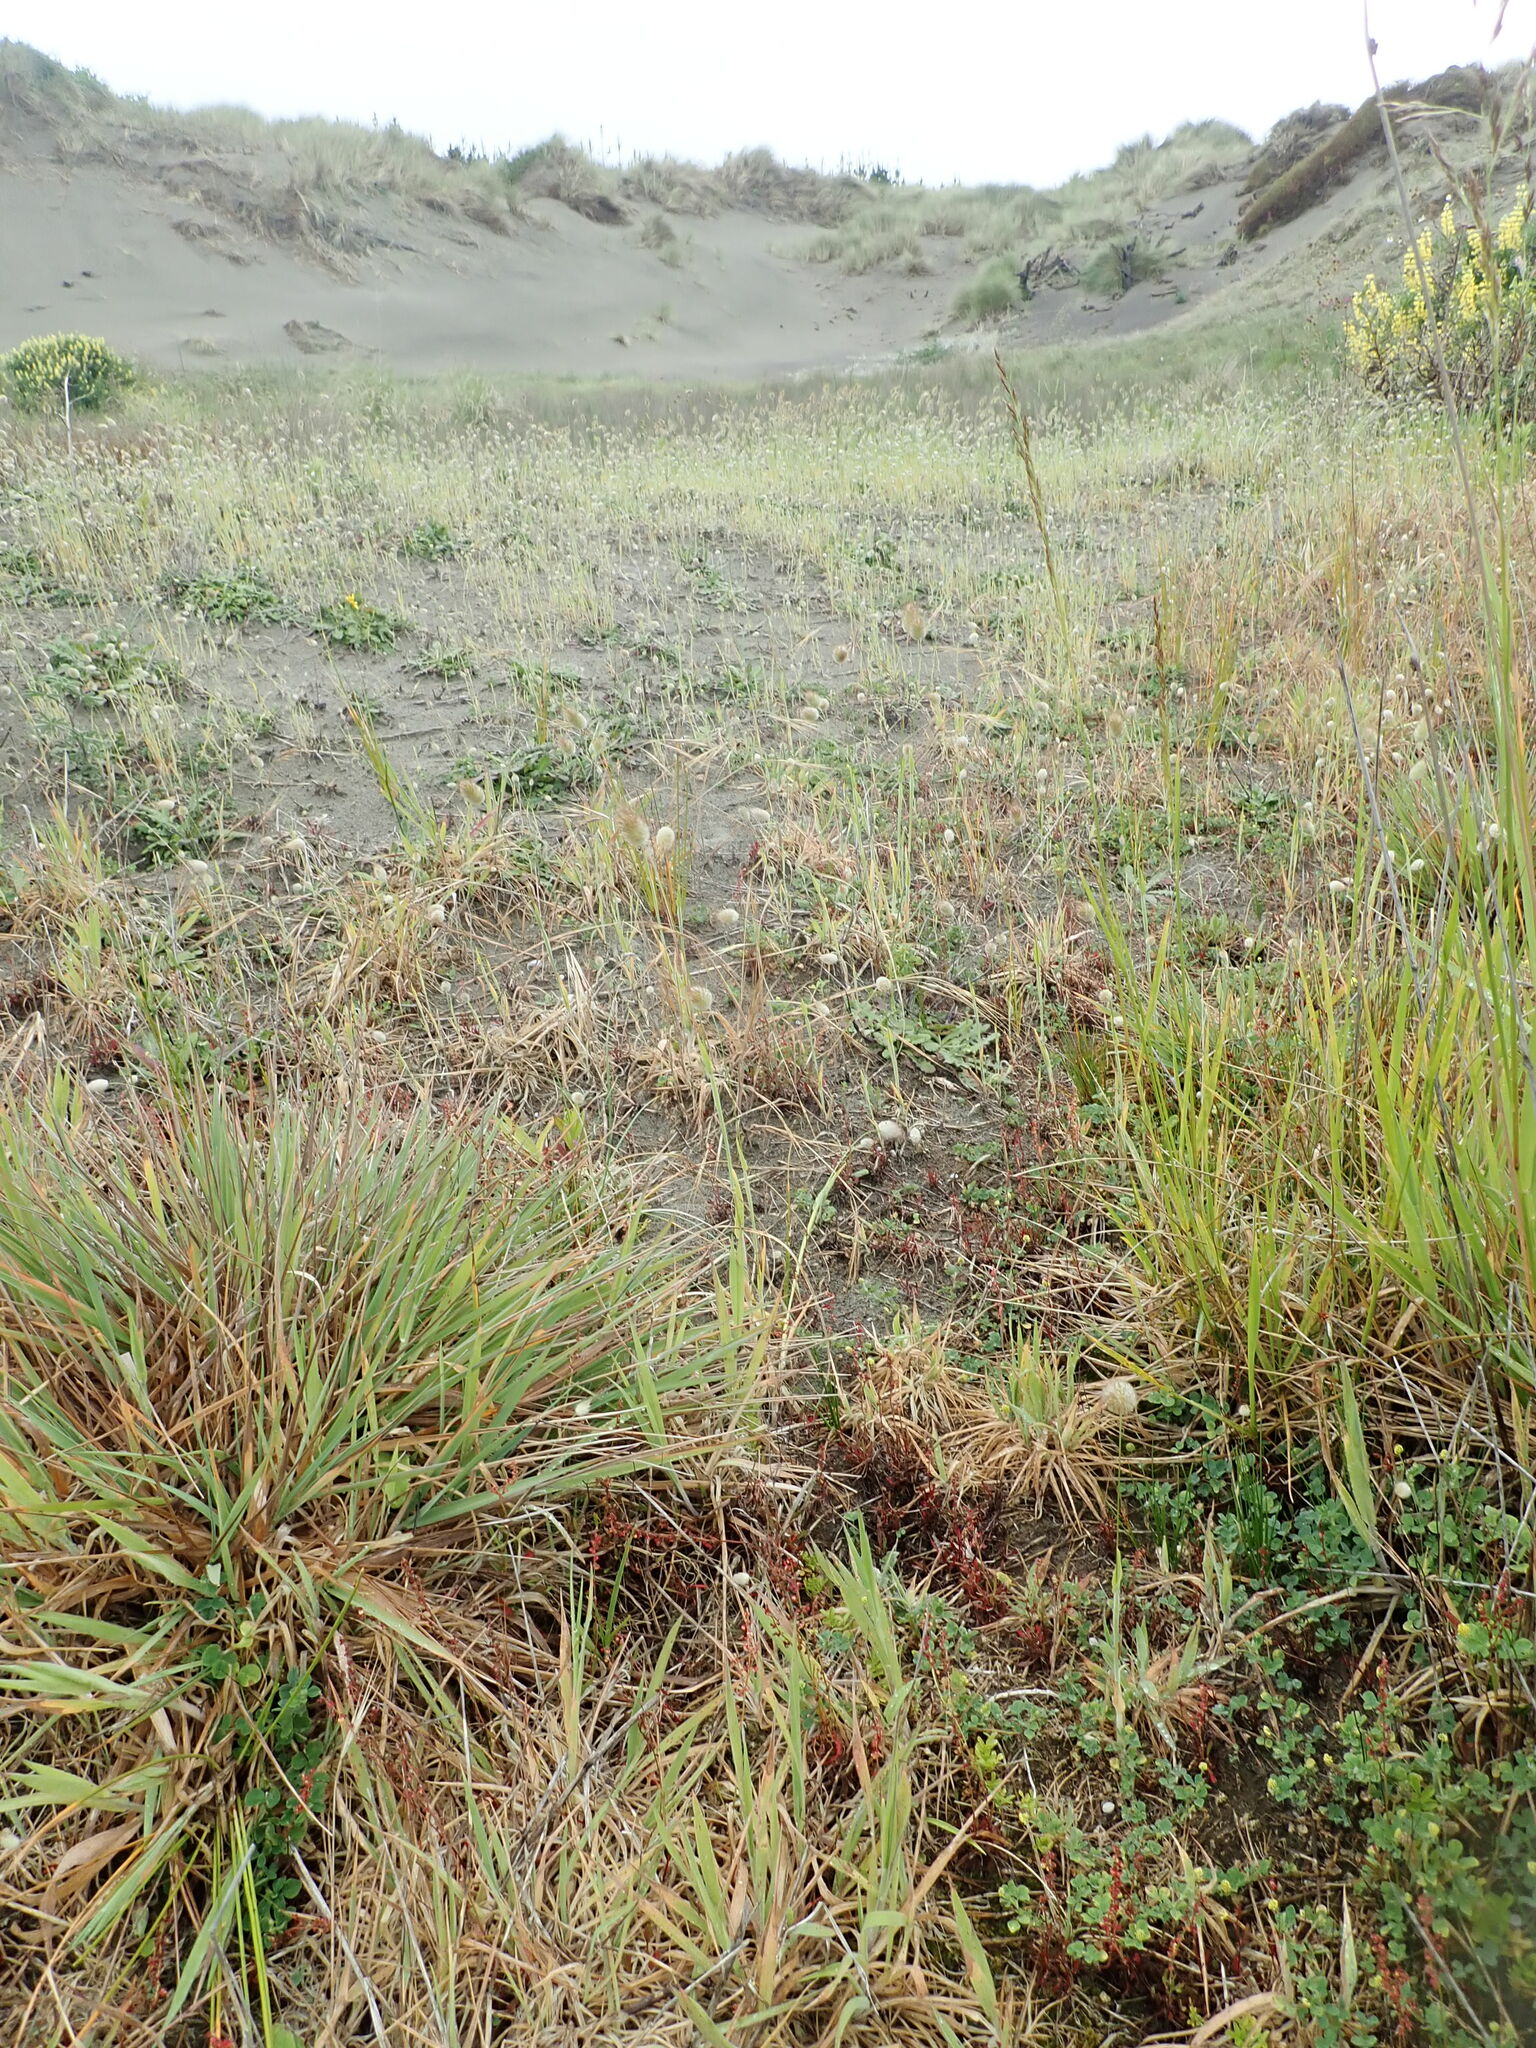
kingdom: Plantae
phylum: Tracheophyta
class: Magnoliopsida
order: Caryophyllales
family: Polygonaceae
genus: Rumex
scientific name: Rumex acetosella
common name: Common sheep sorrel
